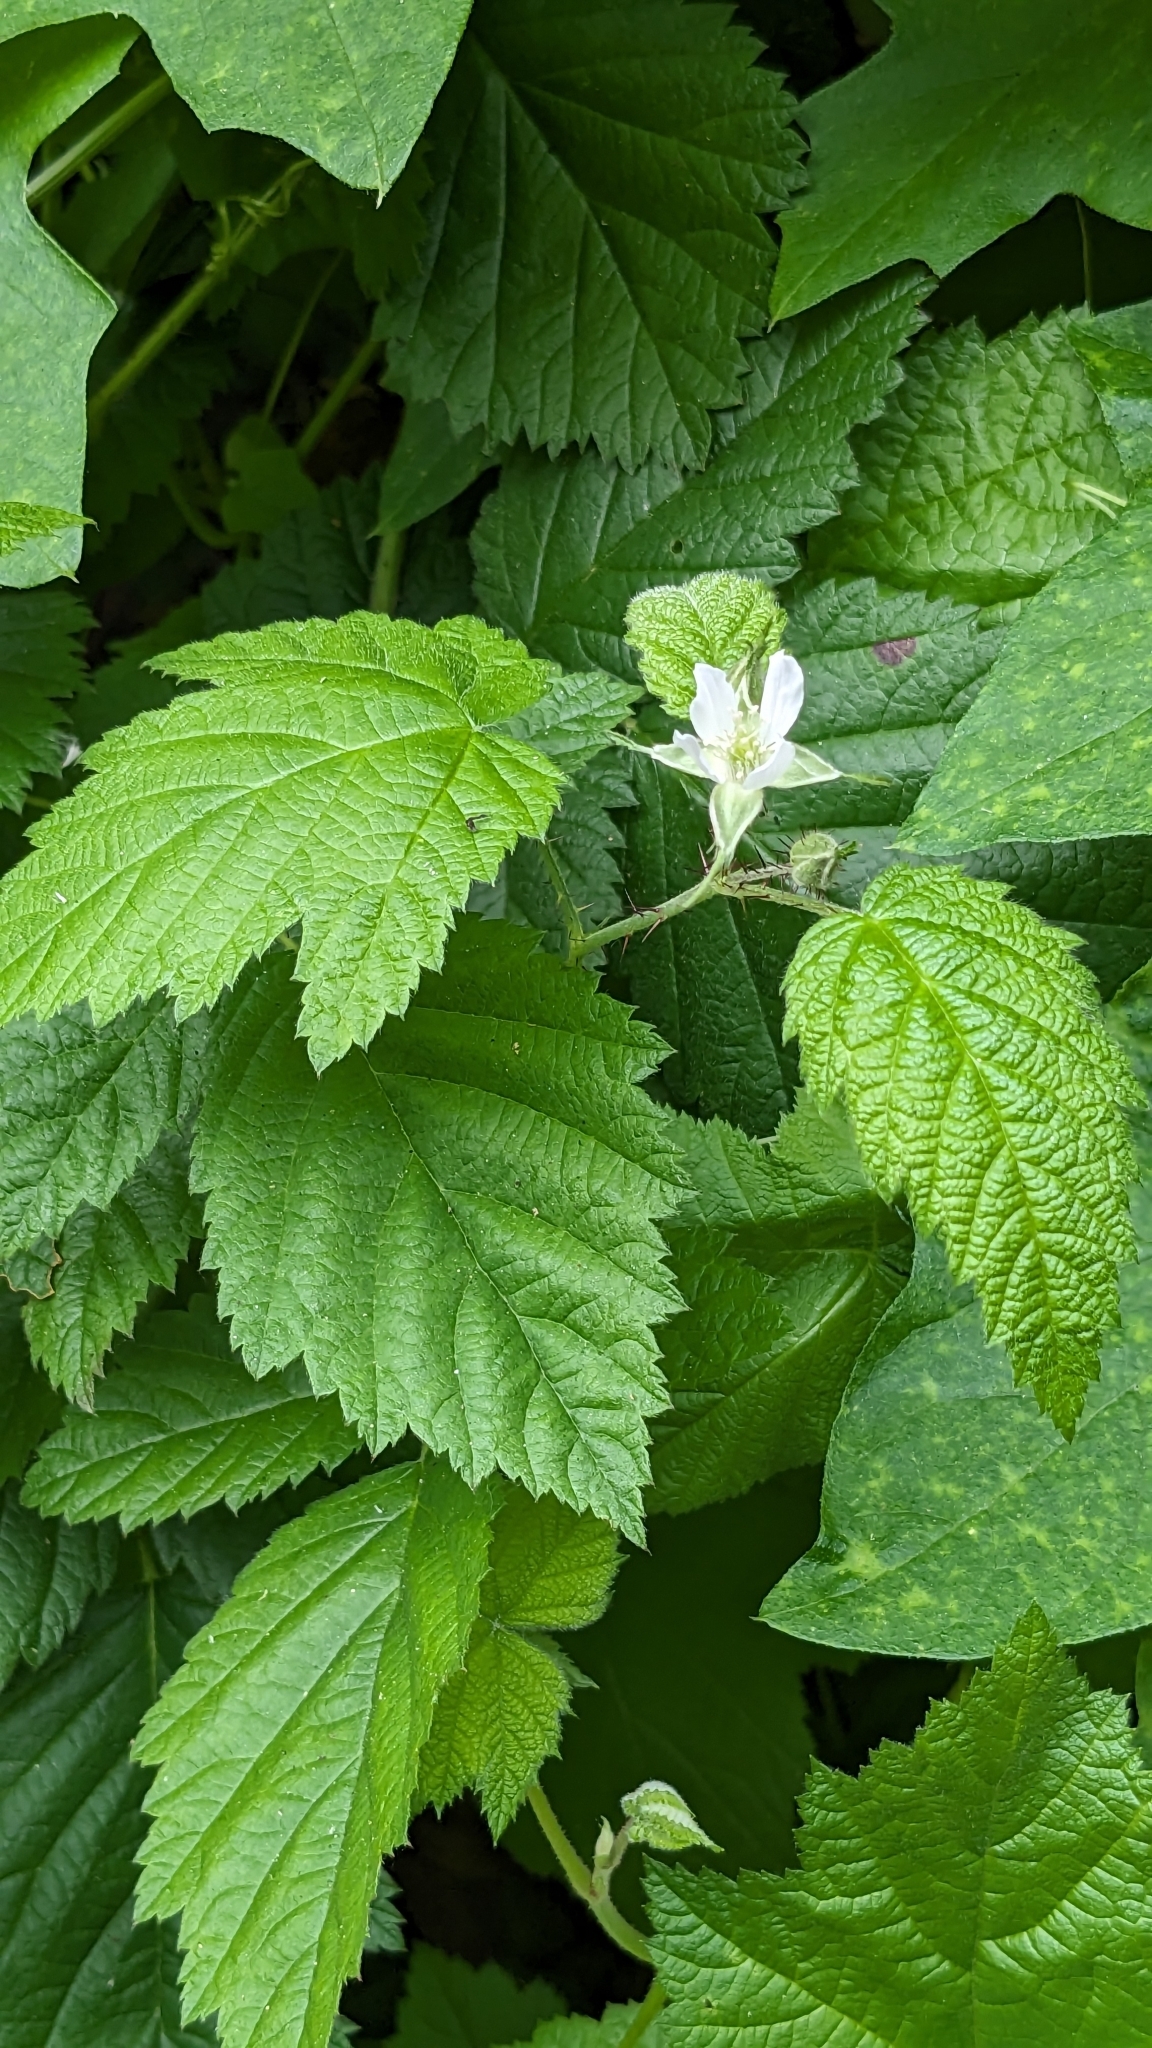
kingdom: Plantae
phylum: Tracheophyta
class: Magnoliopsida
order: Rosales
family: Rosaceae
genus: Rubus
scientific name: Rubus ursinus
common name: Pacific blackberry
